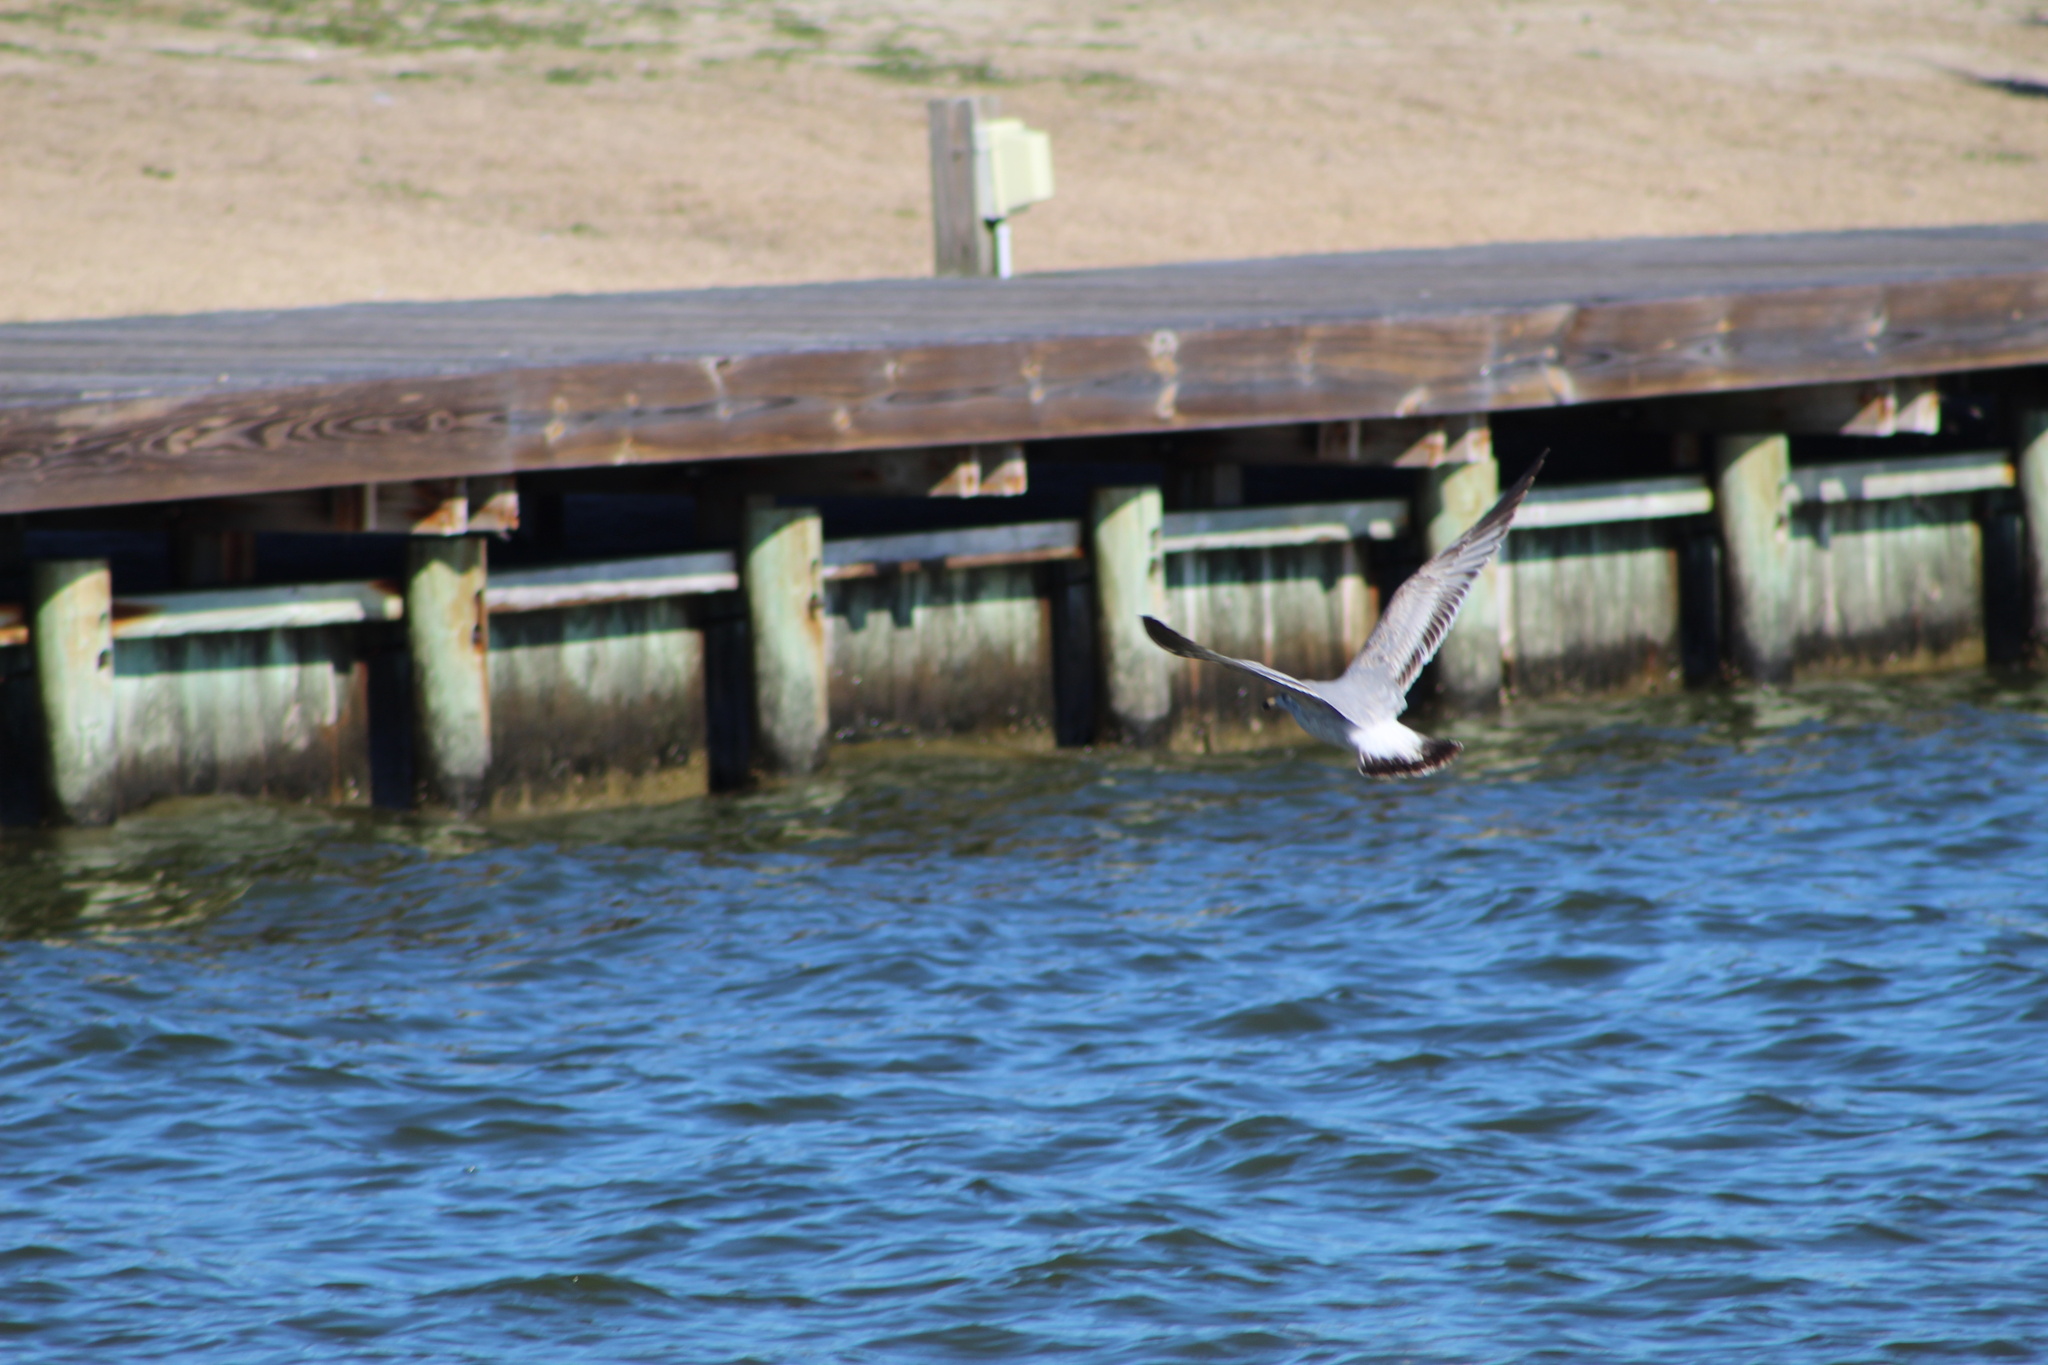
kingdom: Animalia
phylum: Chordata
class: Aves
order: Charadriiformes
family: Laridae
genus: Larus
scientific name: Larus delawarensis
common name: Ring-billed gull
